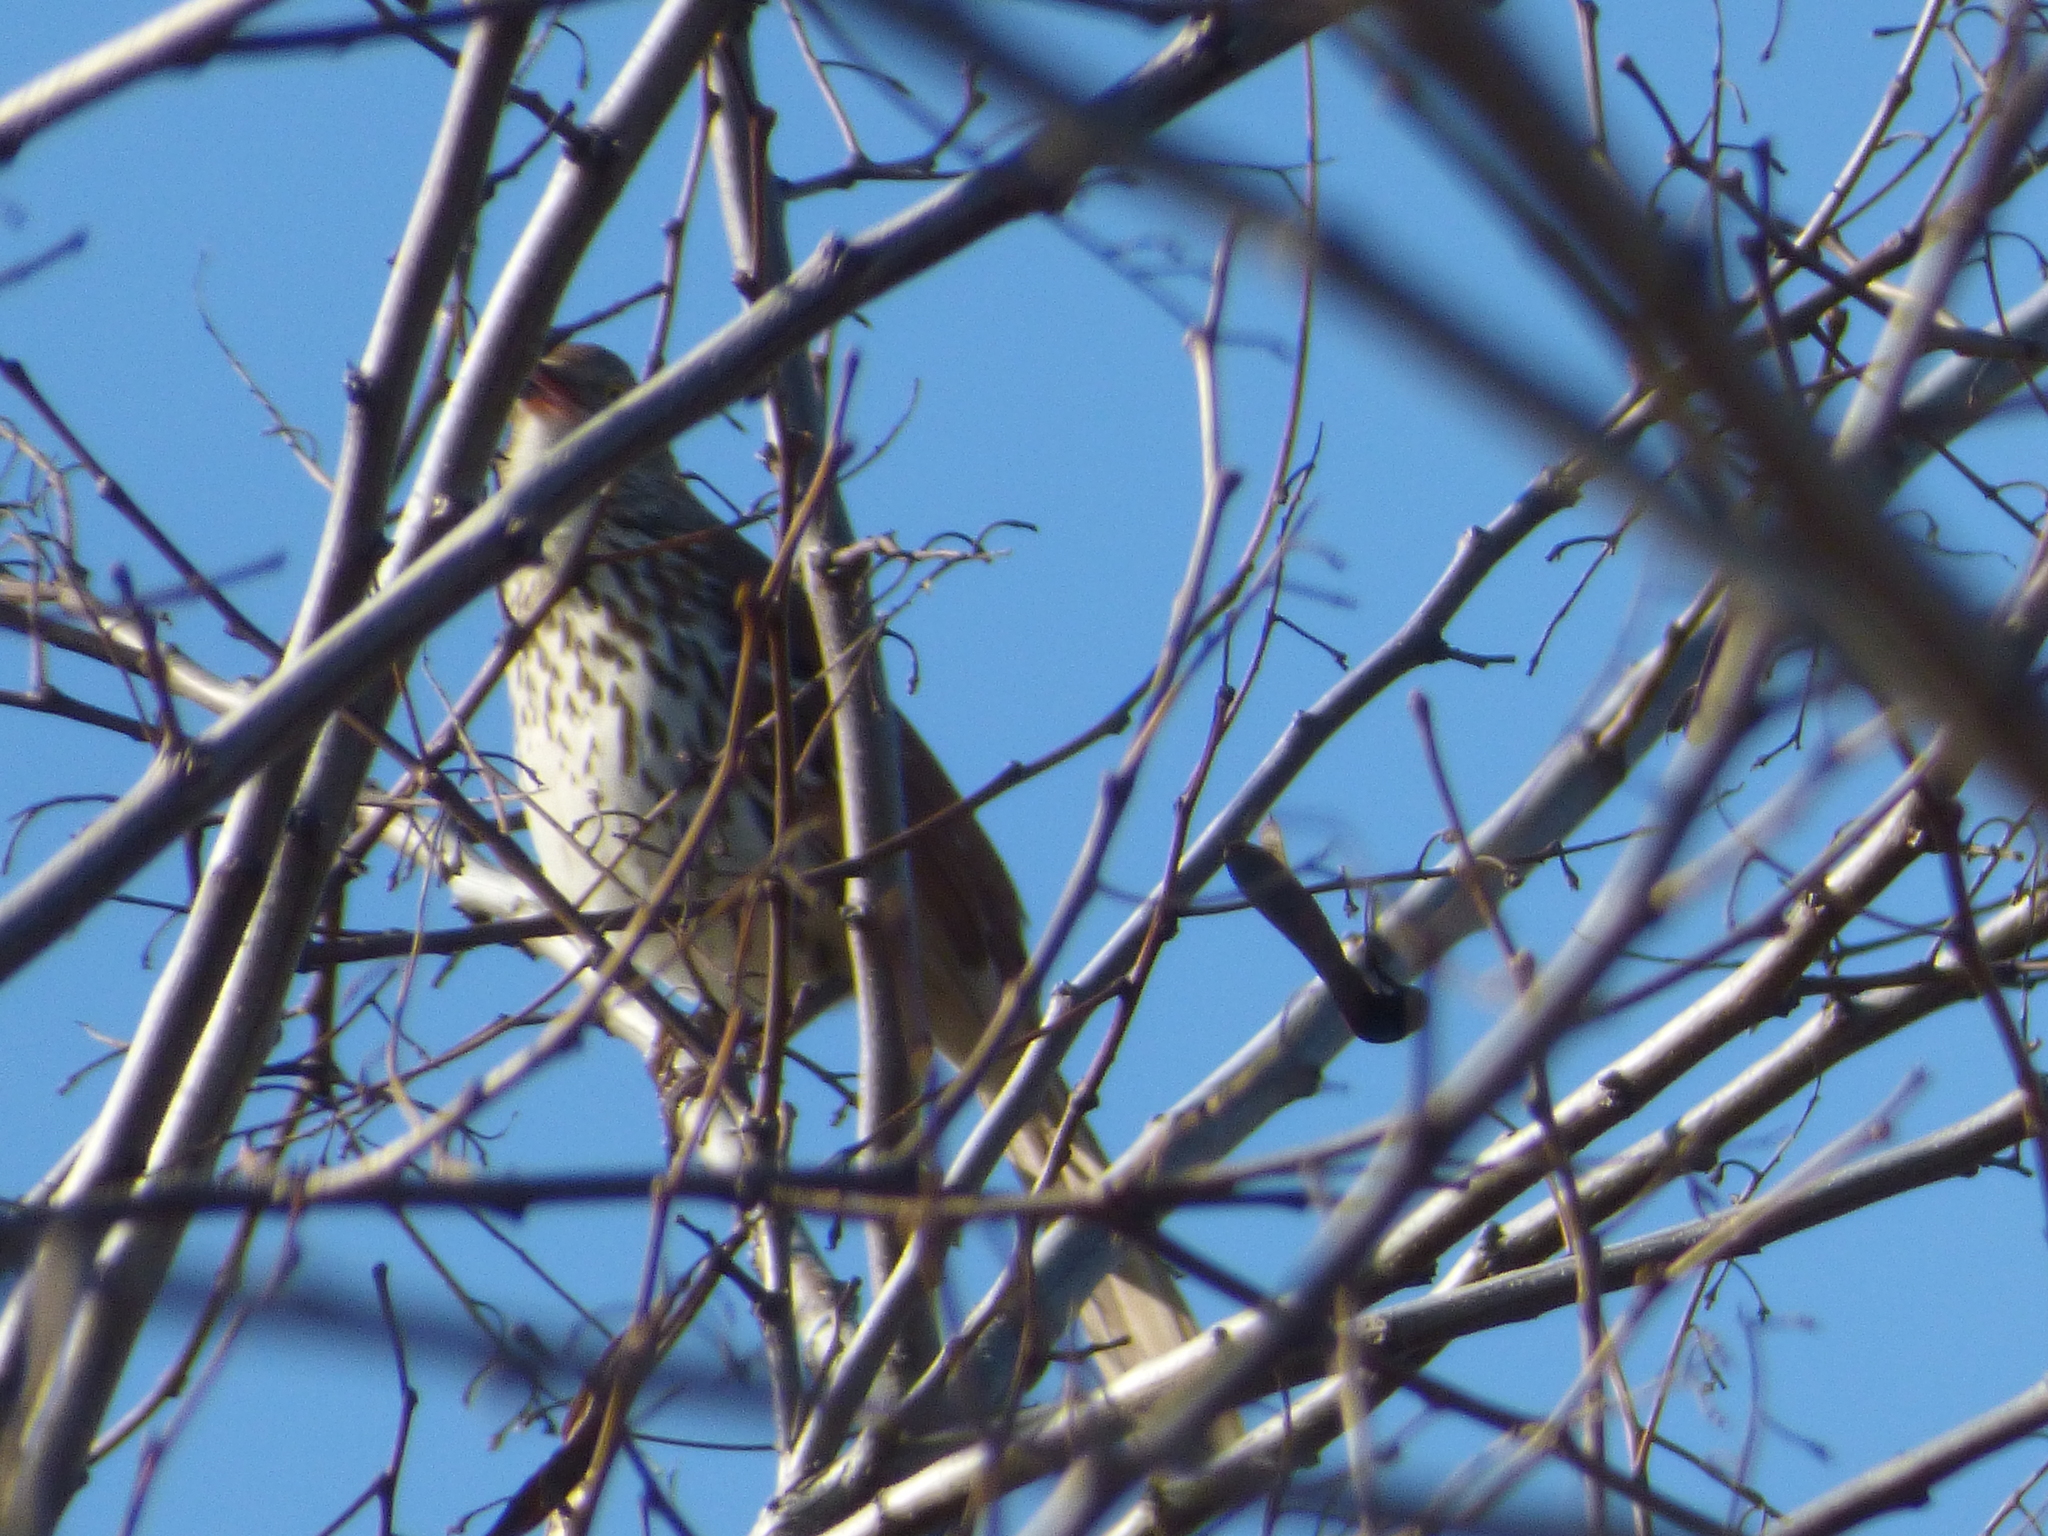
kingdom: Animalia
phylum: Chordata
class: Aves
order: Passeriformes
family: Mimidae
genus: Toxostoma
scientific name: Toxostoma rufum
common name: Brown thrasher
